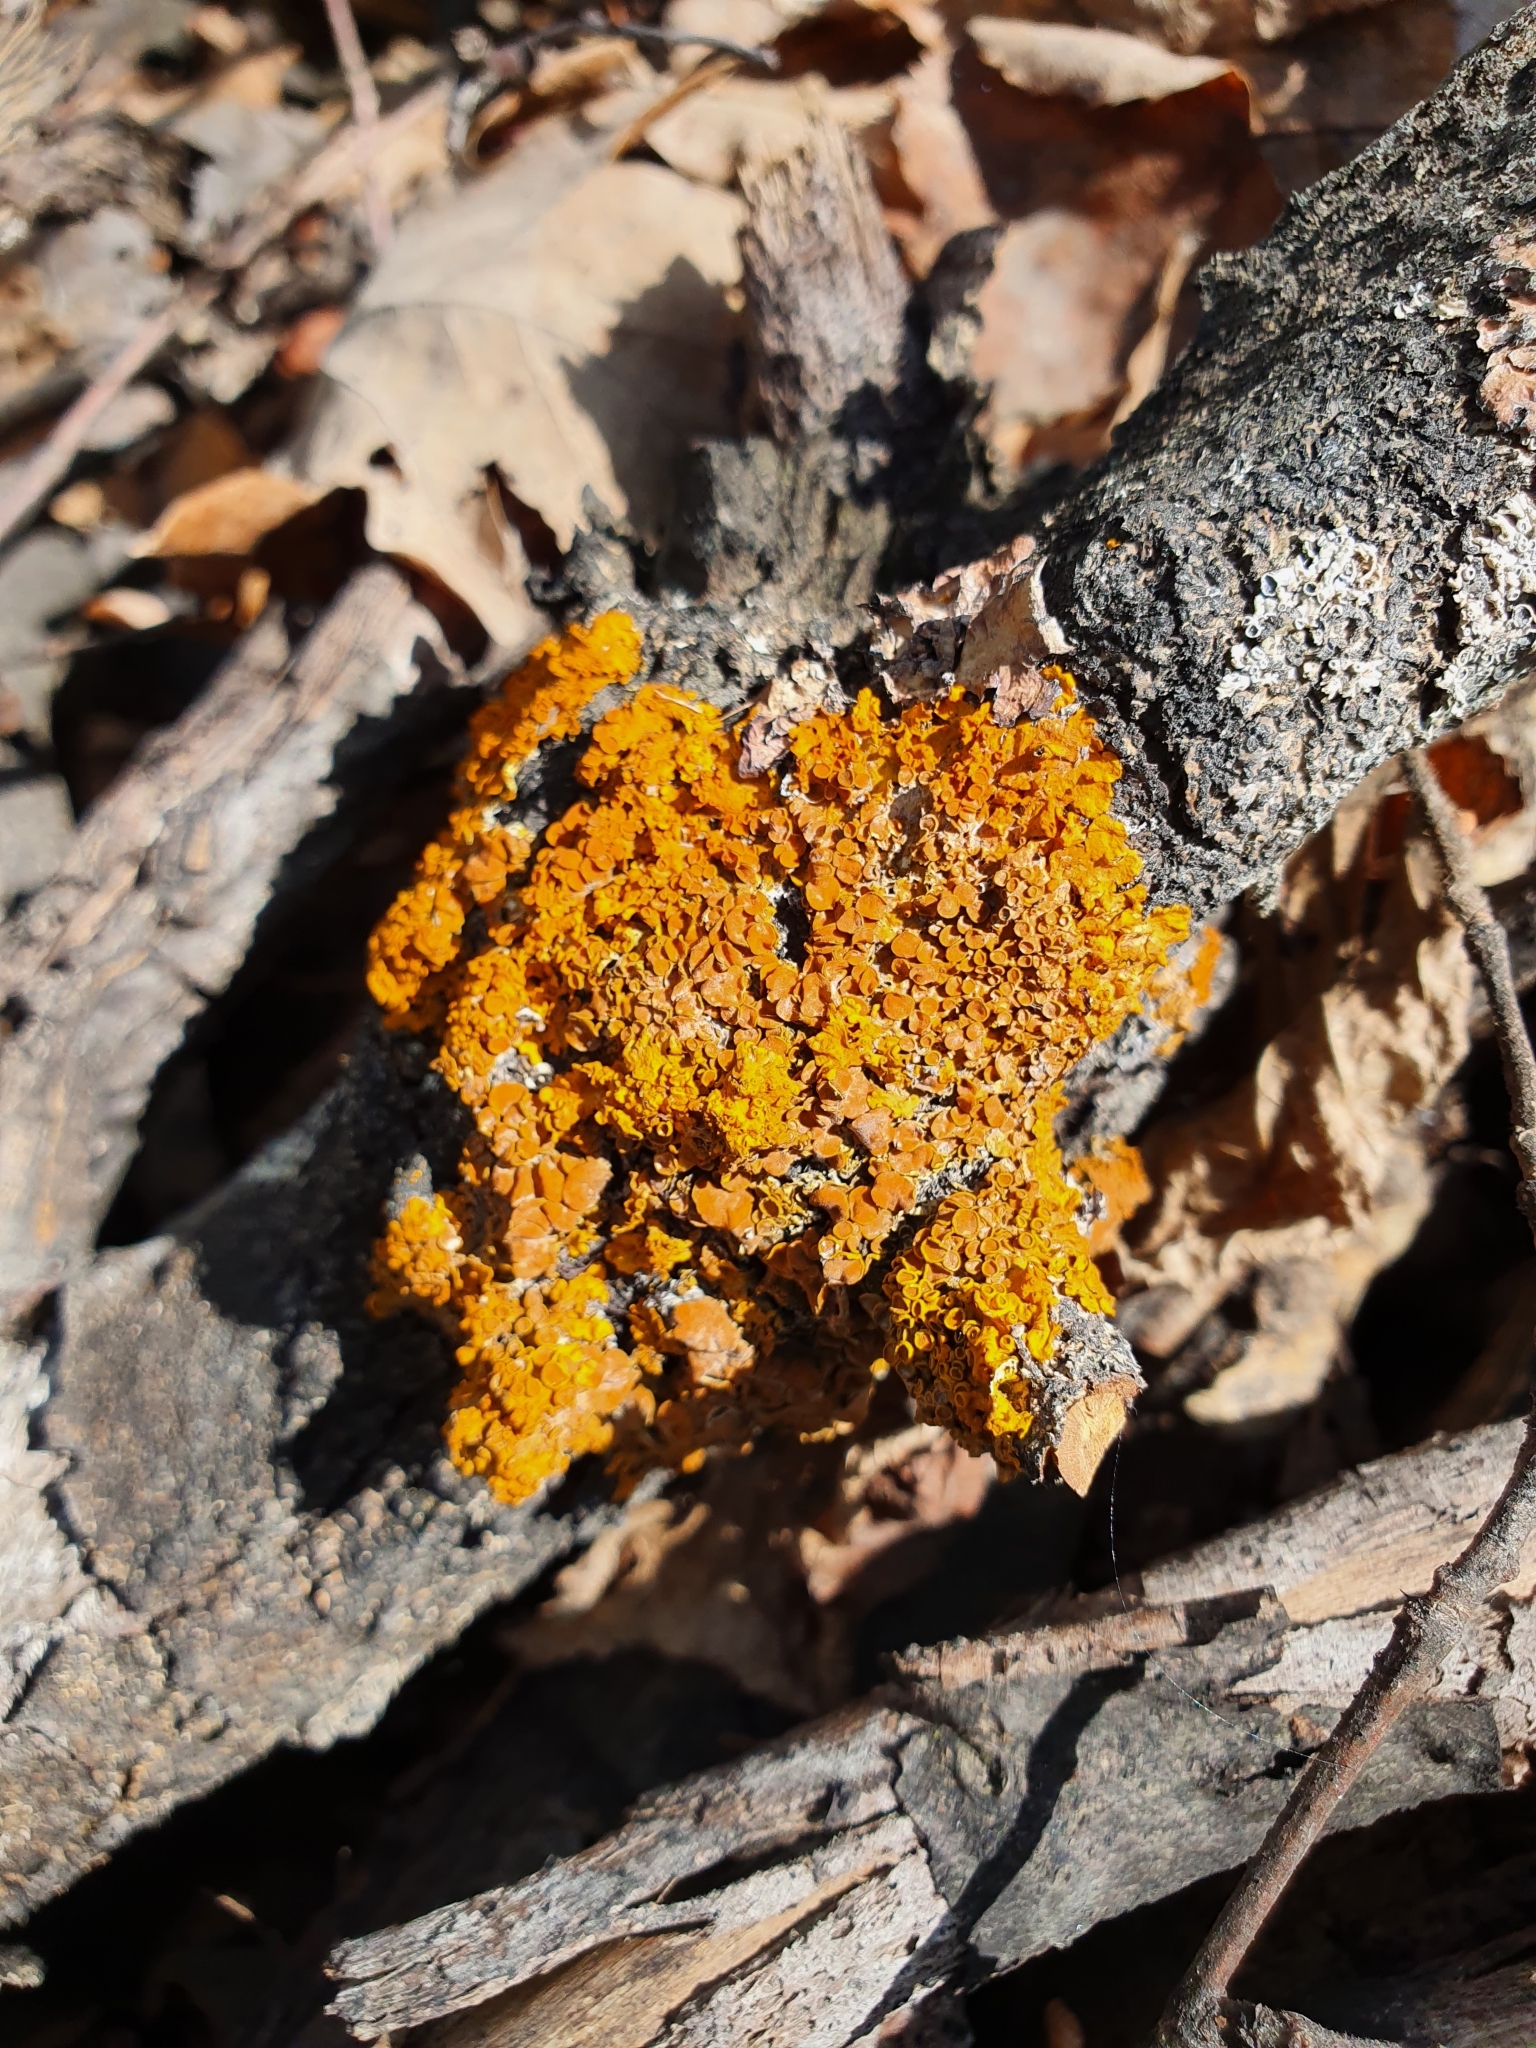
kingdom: Fungi
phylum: Ascomycota
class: Lecanoromycetes
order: Teloschistales
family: Teloschistaceae
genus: Xanthoria
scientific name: Xanthoria parietina
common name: Common orange lichen
